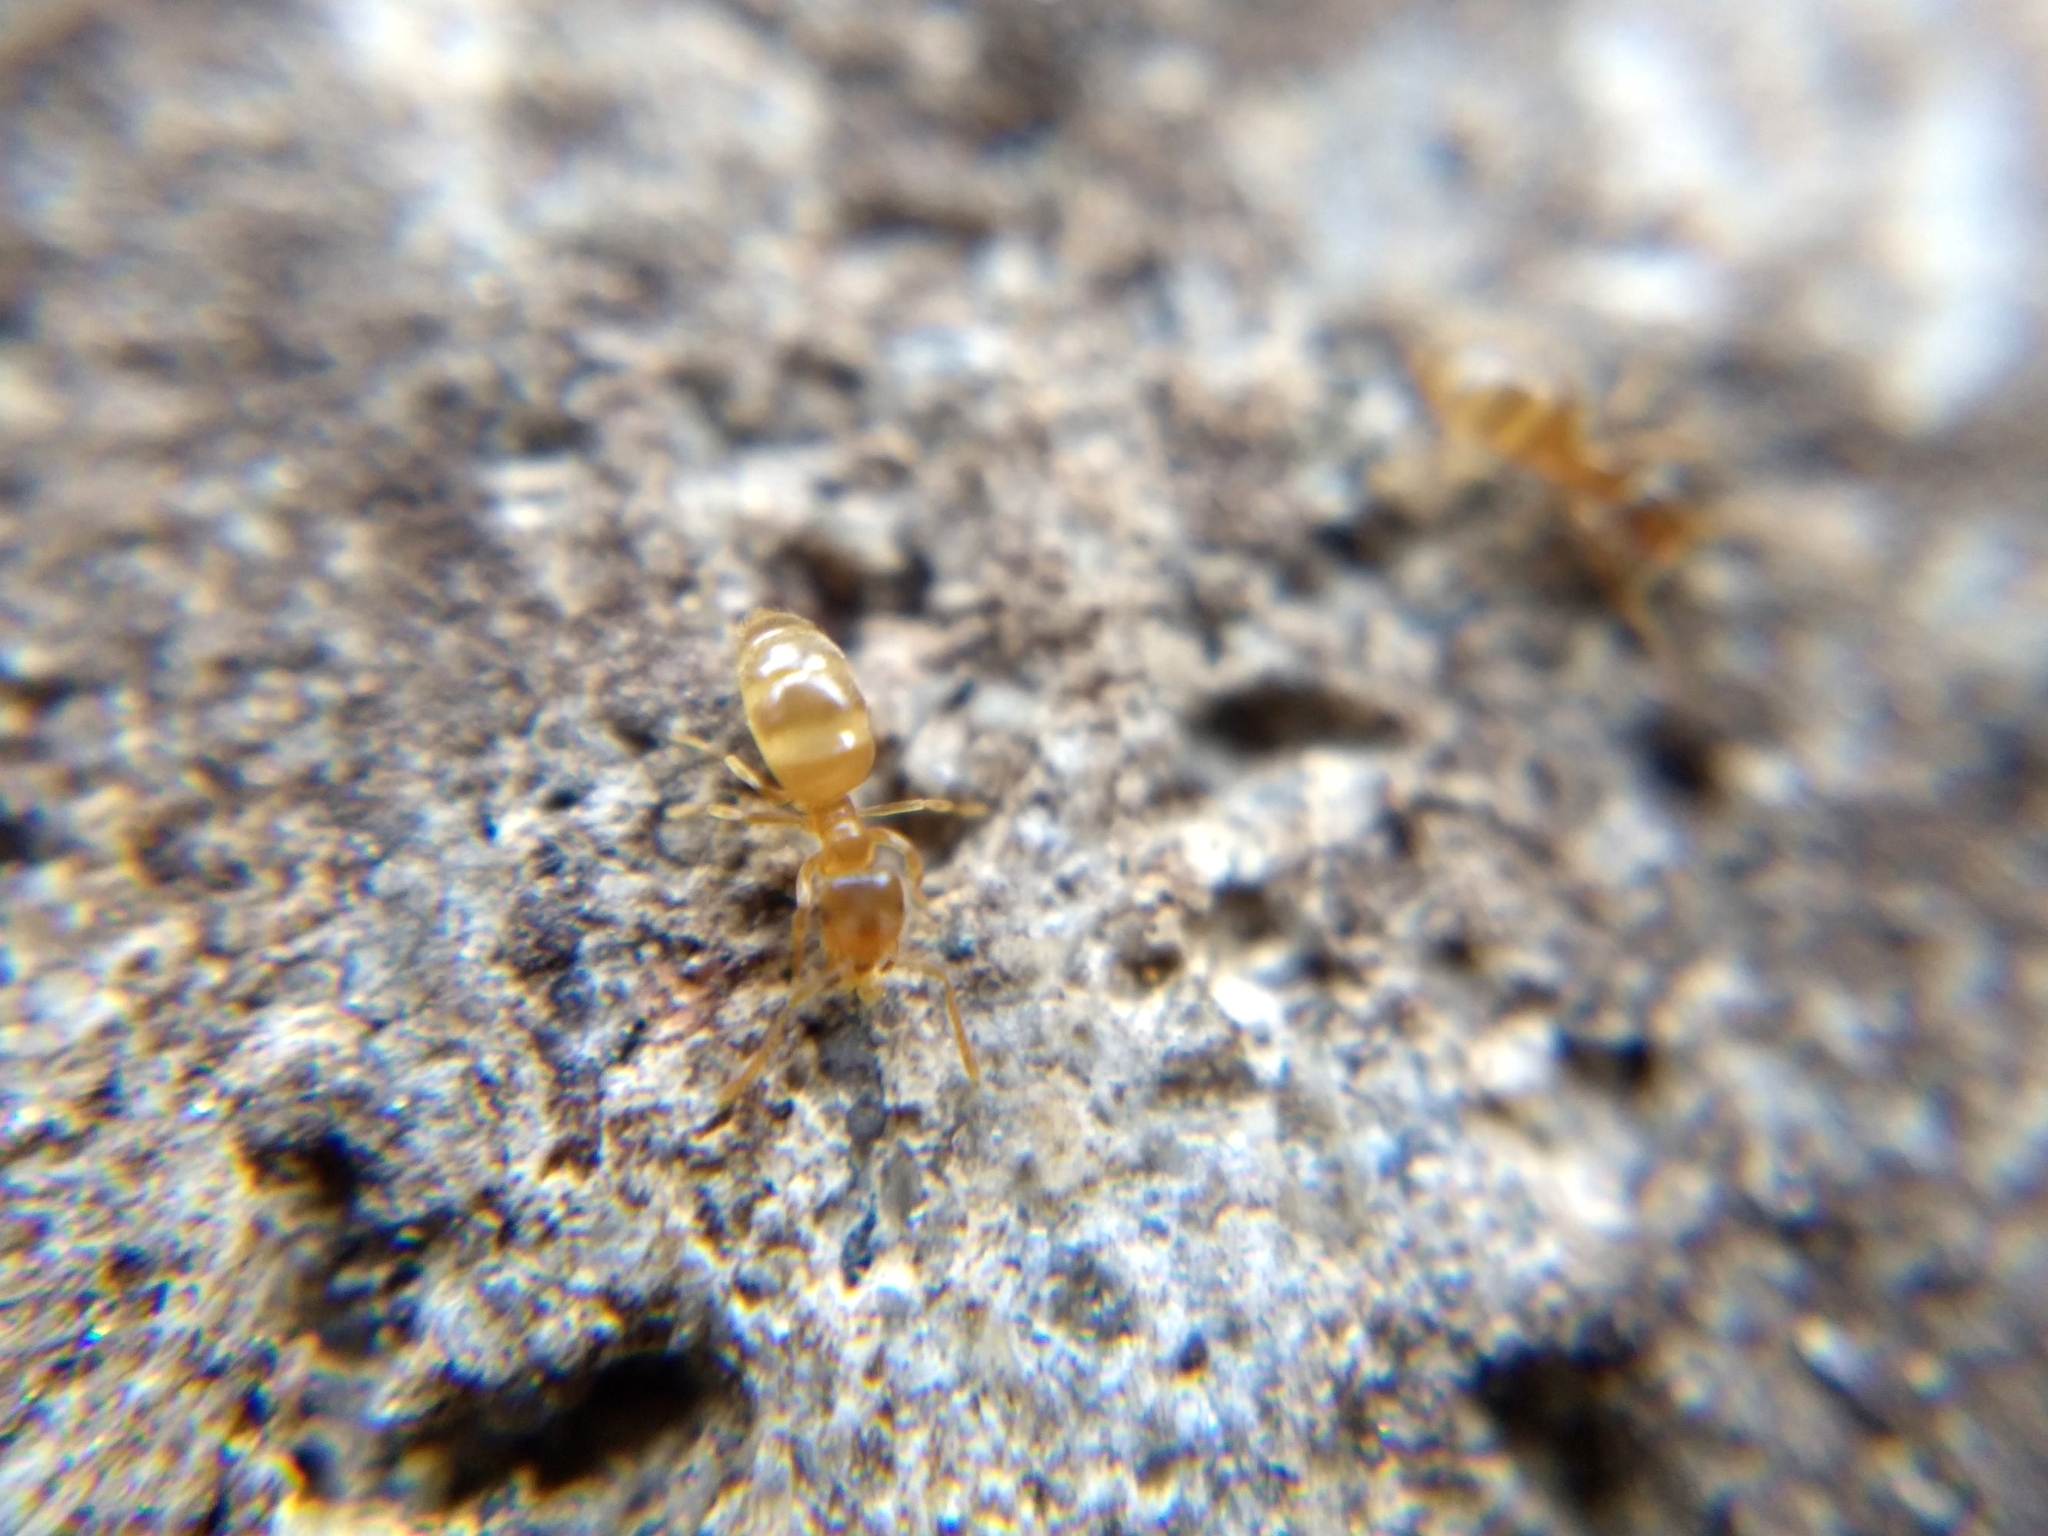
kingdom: Animalia
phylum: Arthropoda
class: Insecta
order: Hymenoptera
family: Formicidae
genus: Brachymyrmex
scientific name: Brachymyrmex depilis
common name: Hairless rover ant
